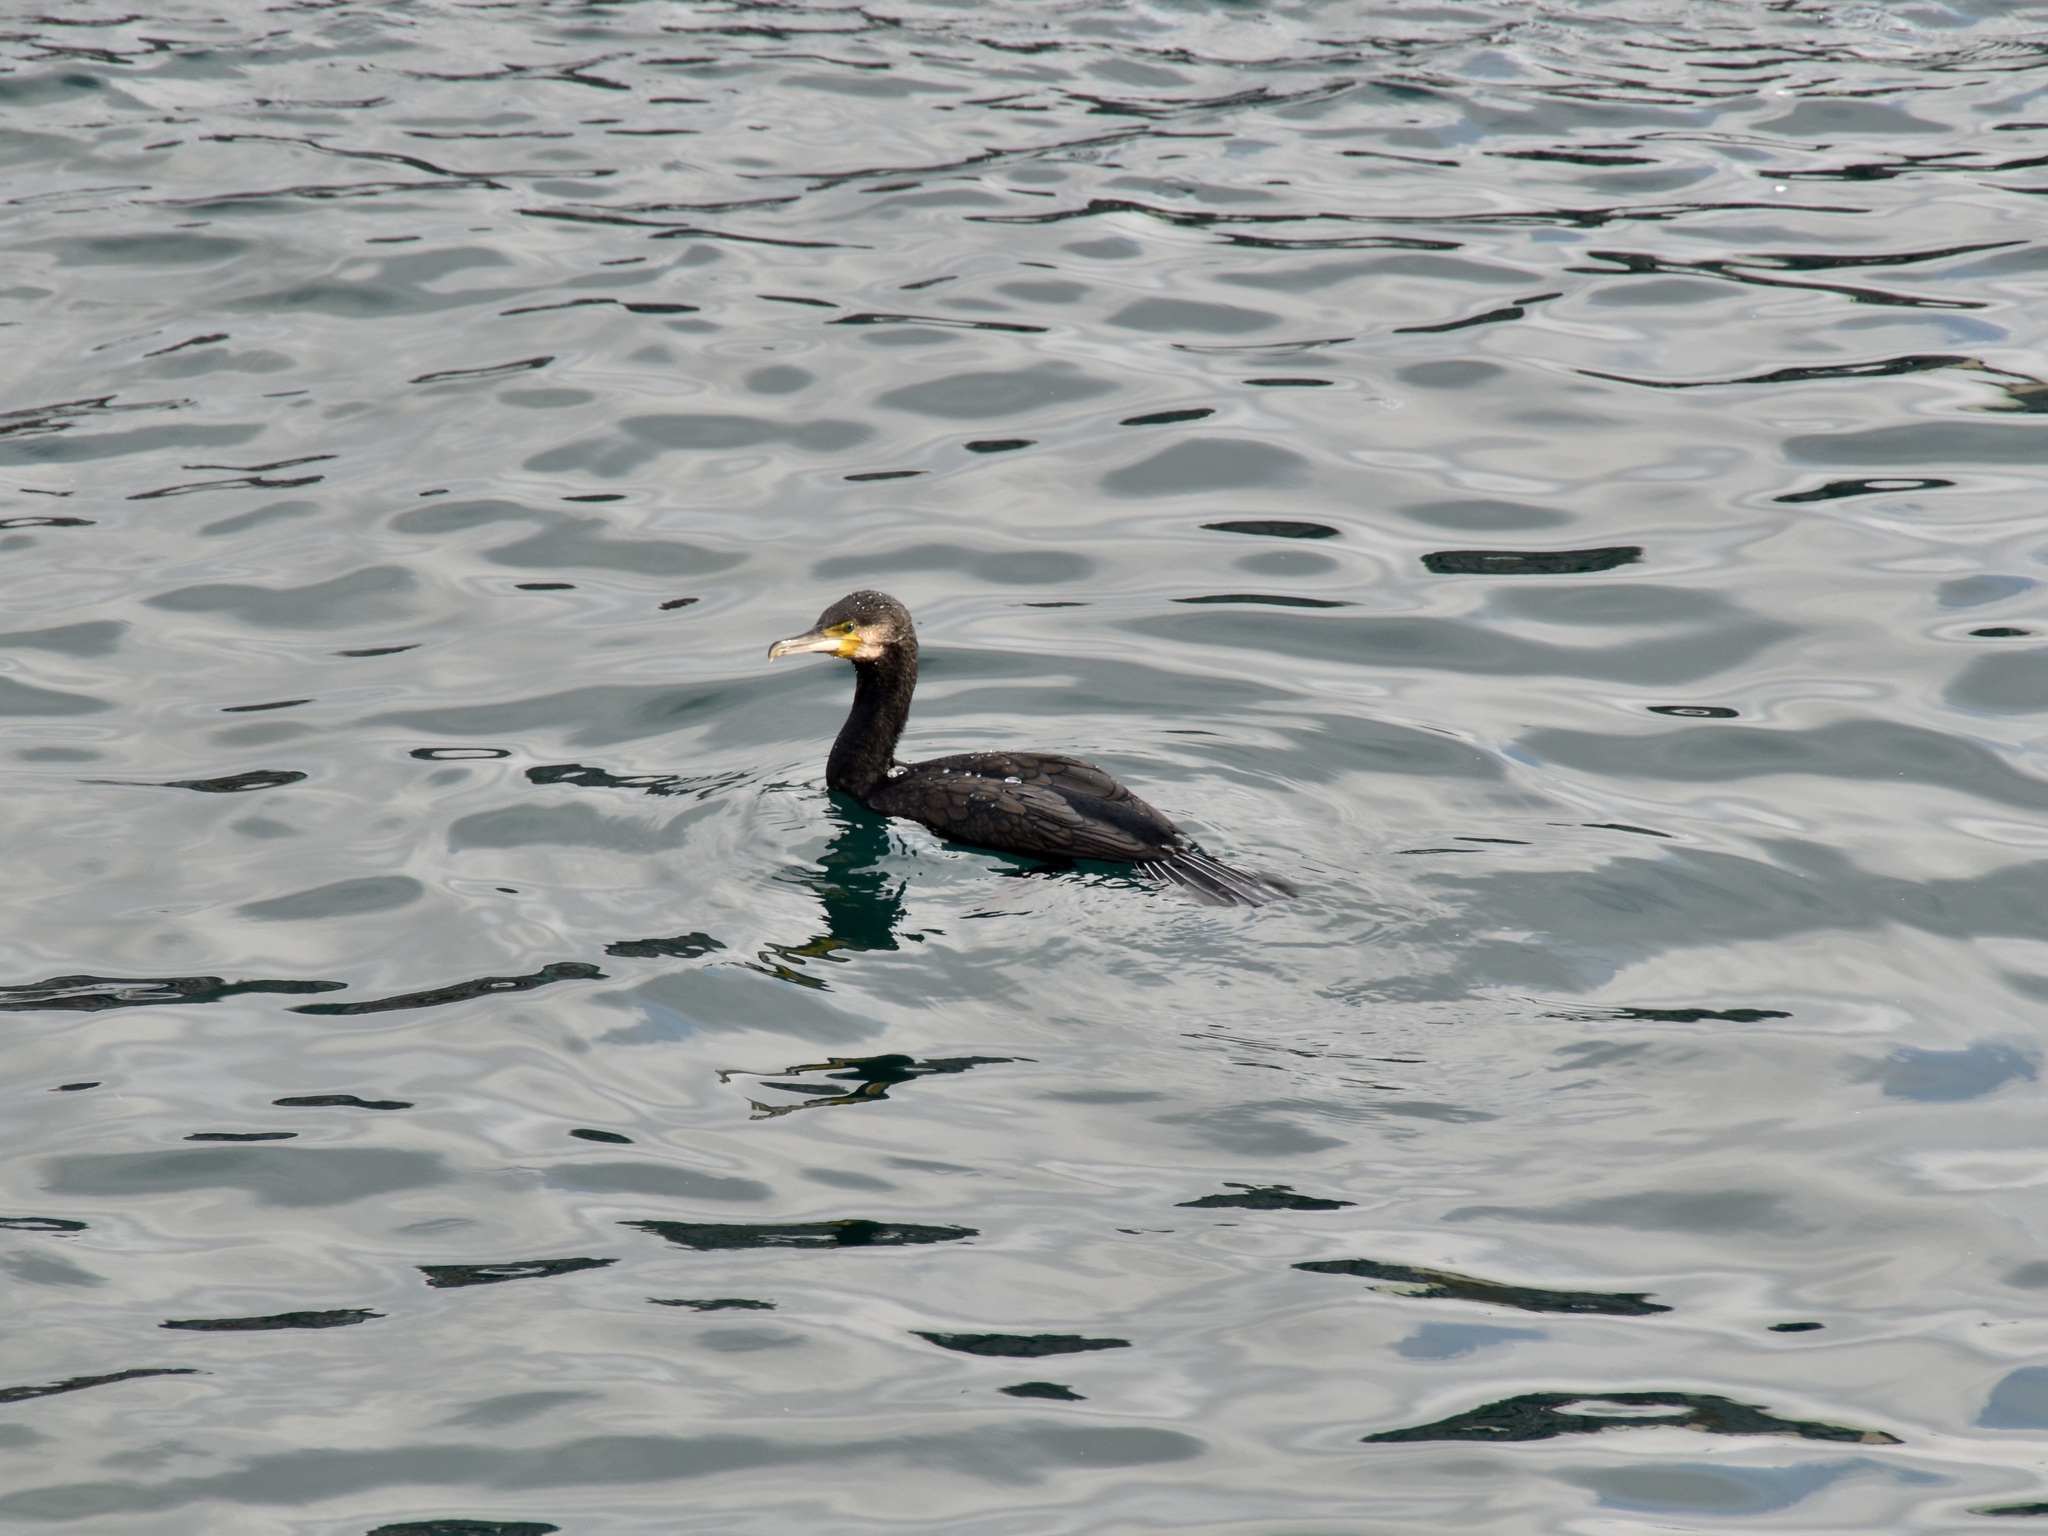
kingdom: Animalia
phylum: Chordata
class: Aves
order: Suliformes
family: Phalacrocoracidae
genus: Phalacrocorax
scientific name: Phalacrocorax carbo
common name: Great cormorant
